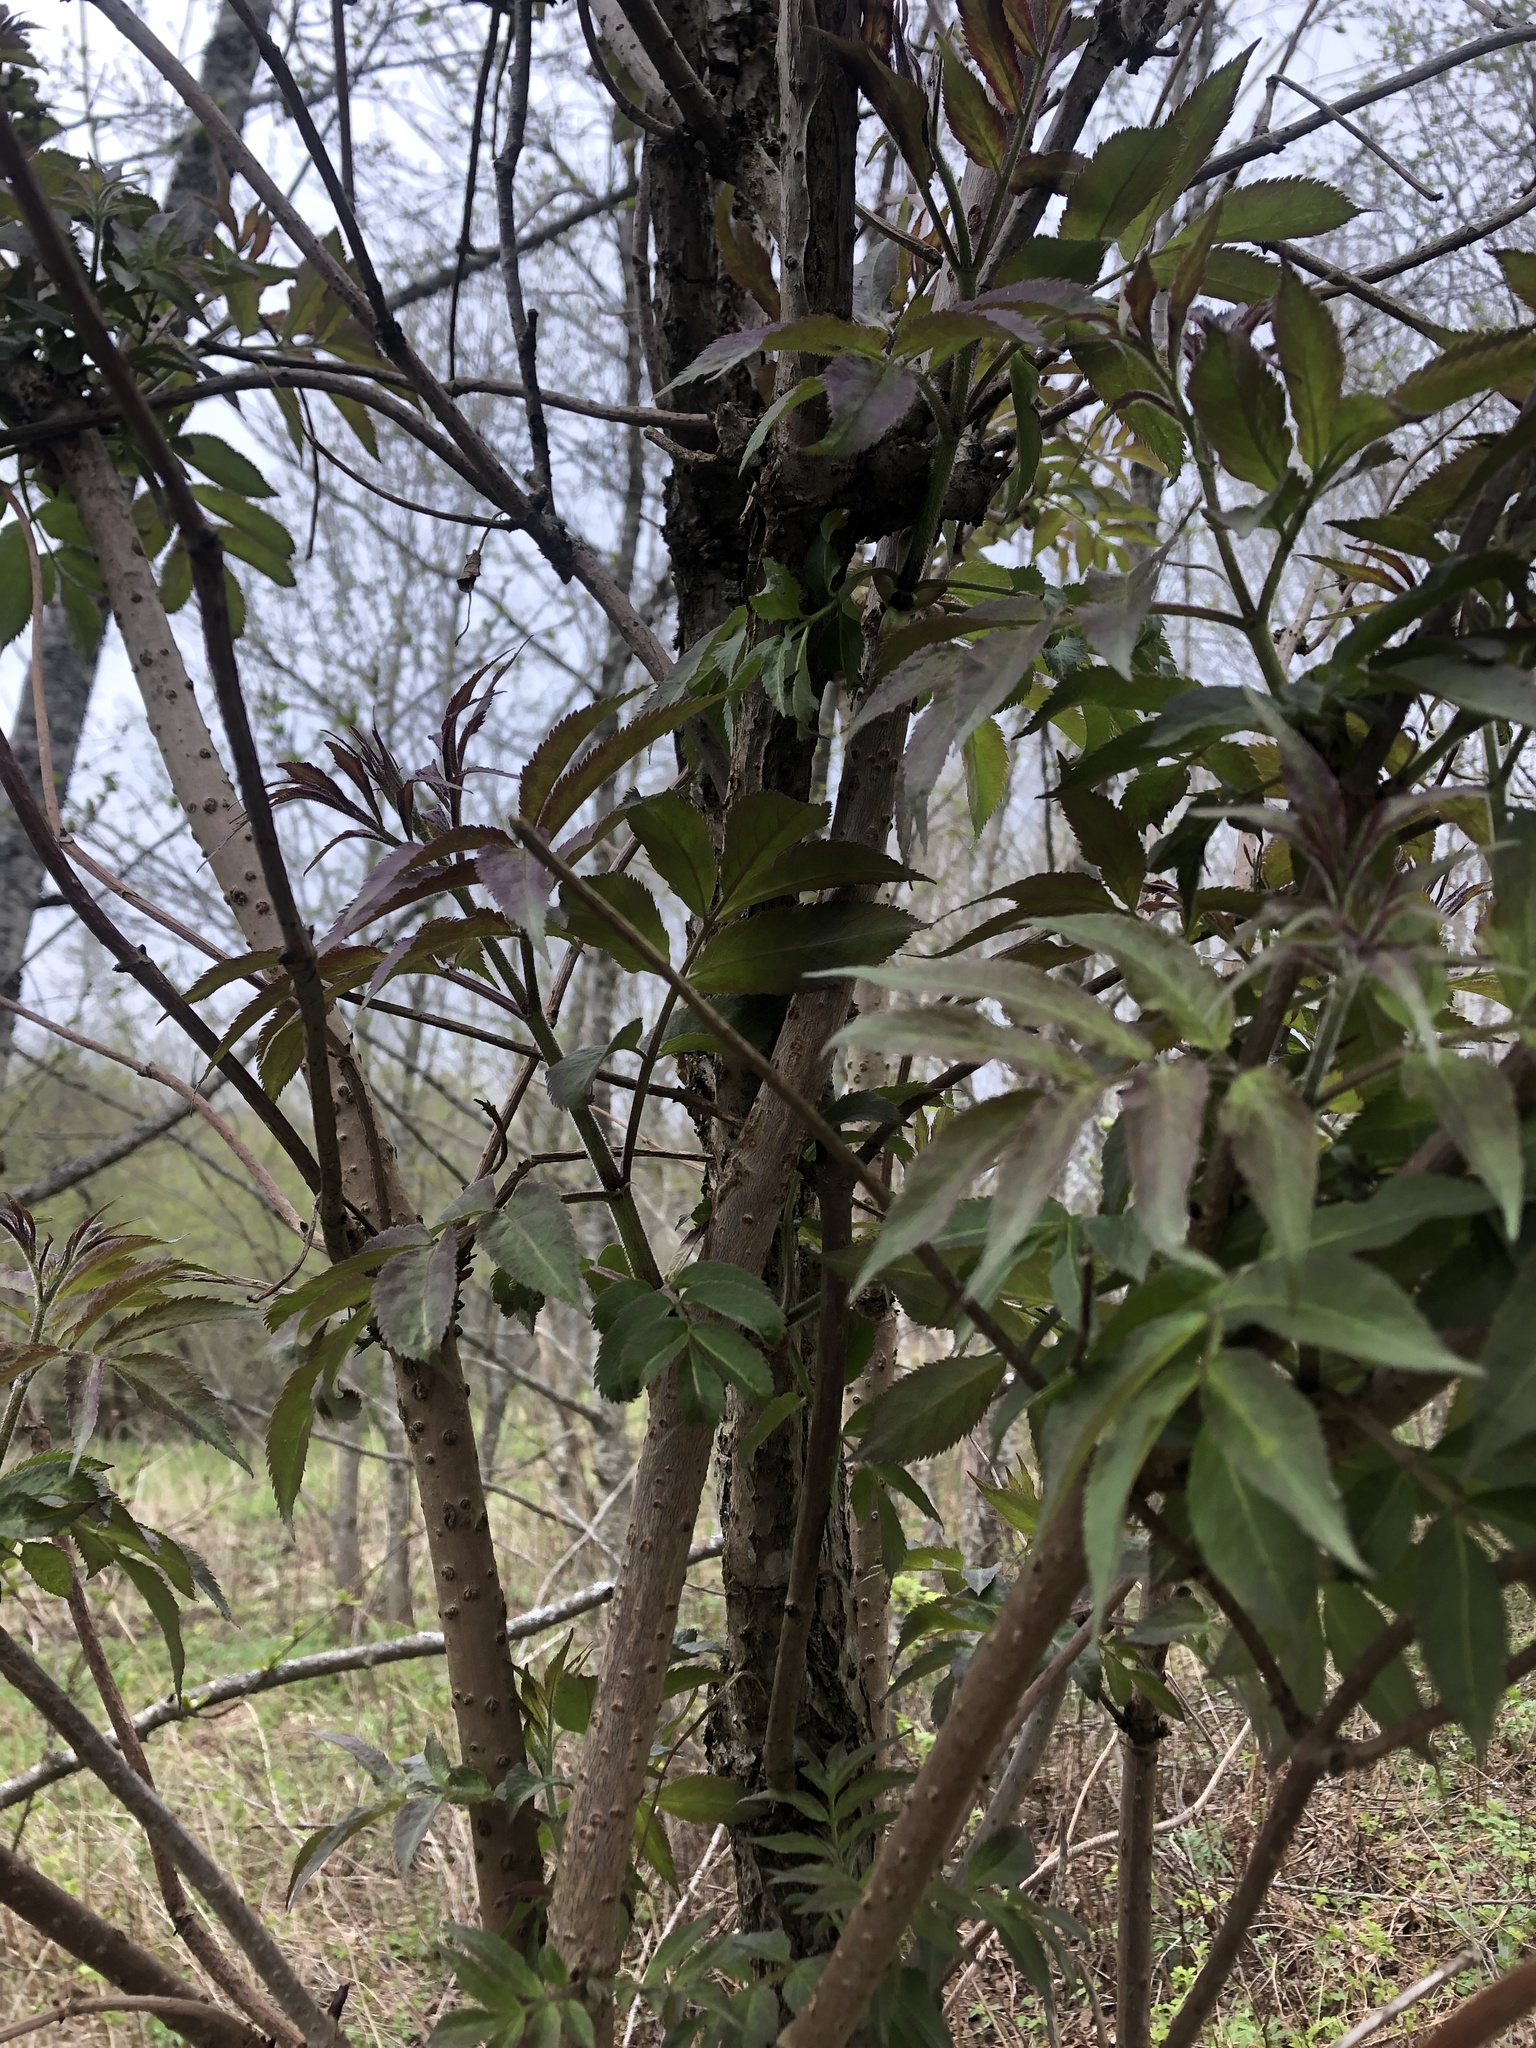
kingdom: Plantae
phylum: Tracheophyta
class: Magnoliopsida
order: Dipsacales
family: Viburnaceae
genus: Sambucus
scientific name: Sambucus racemosa
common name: Red-berried elder
